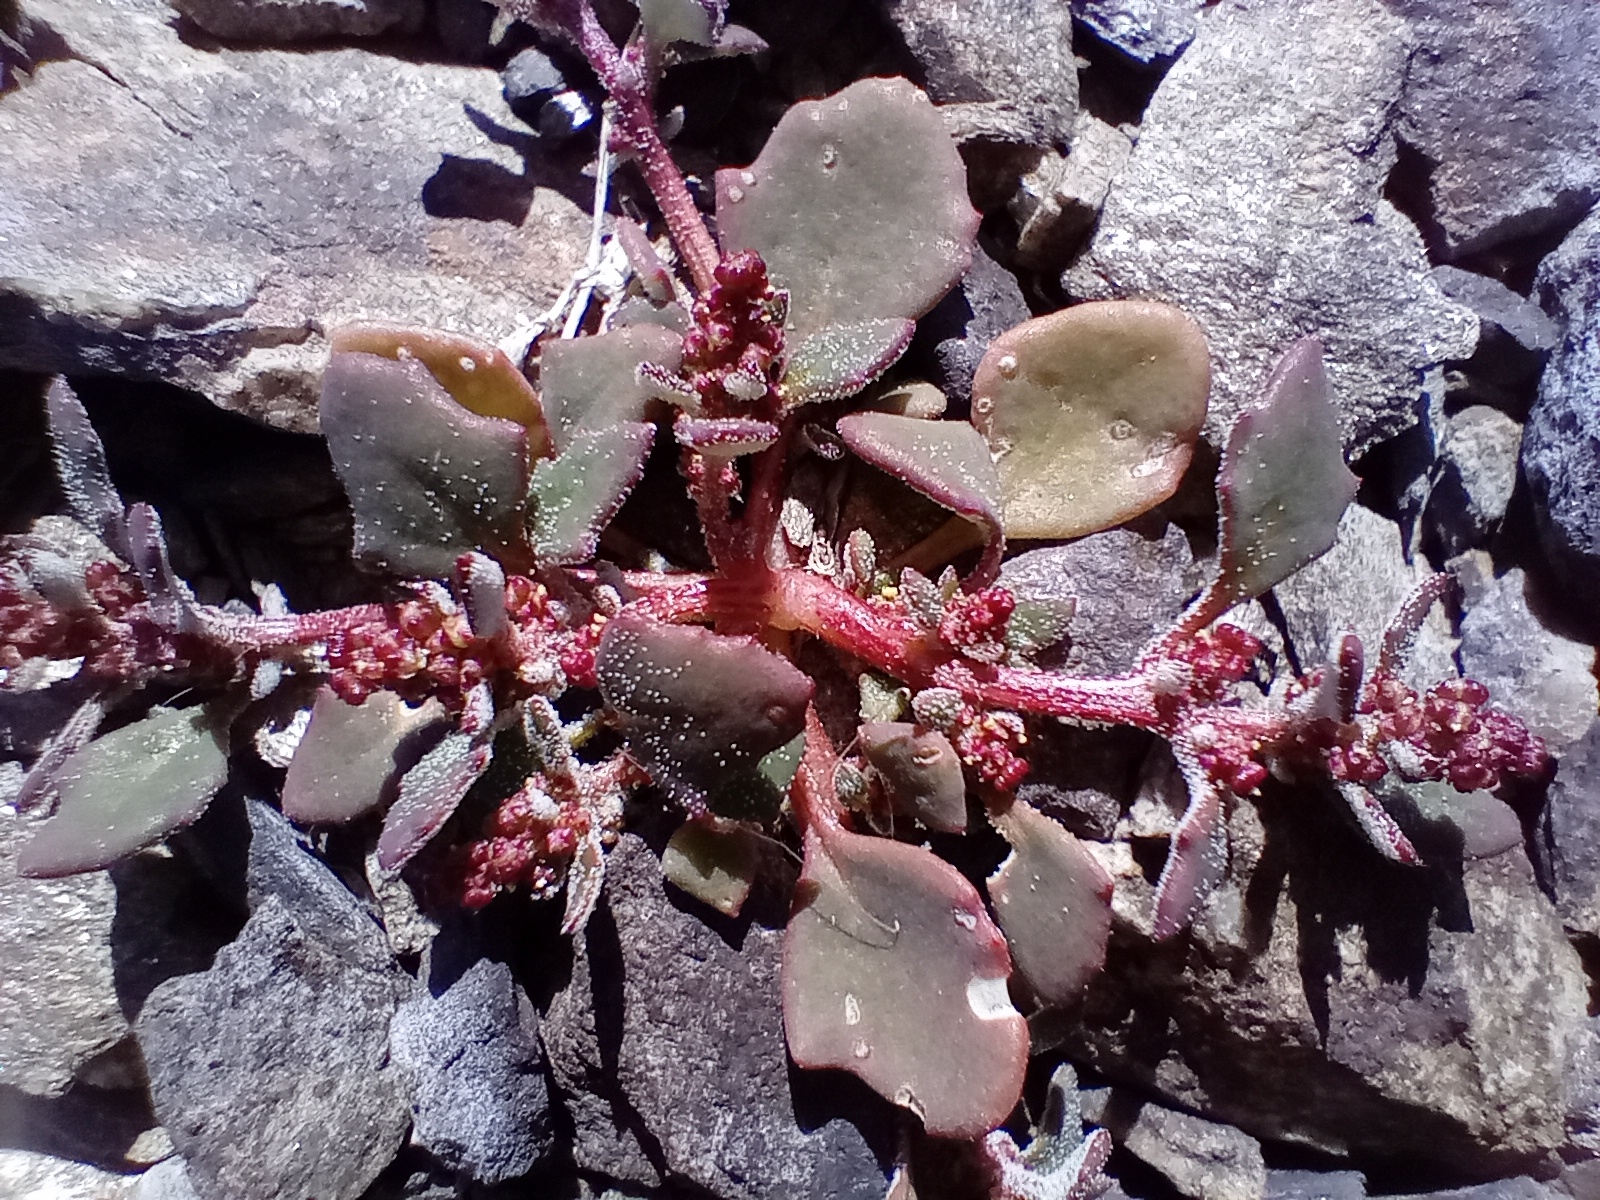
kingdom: Plantae
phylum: Tracheophyta
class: Magnoliopsida
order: Caryophyllales
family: Amaranthaceae
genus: Oxybasis
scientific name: Oxybasis ambigua
